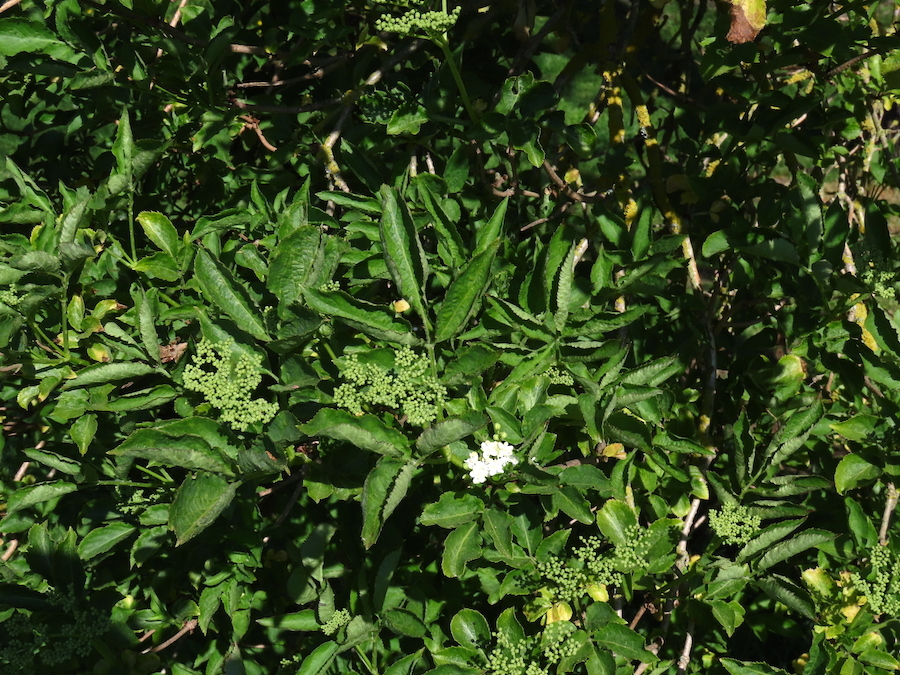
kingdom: Plantae
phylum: Tracheophyta
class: Magnoliopsida
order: Dipsacales
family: Viburnaceae
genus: Sambucus
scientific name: Sambucus nigra
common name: Elder
